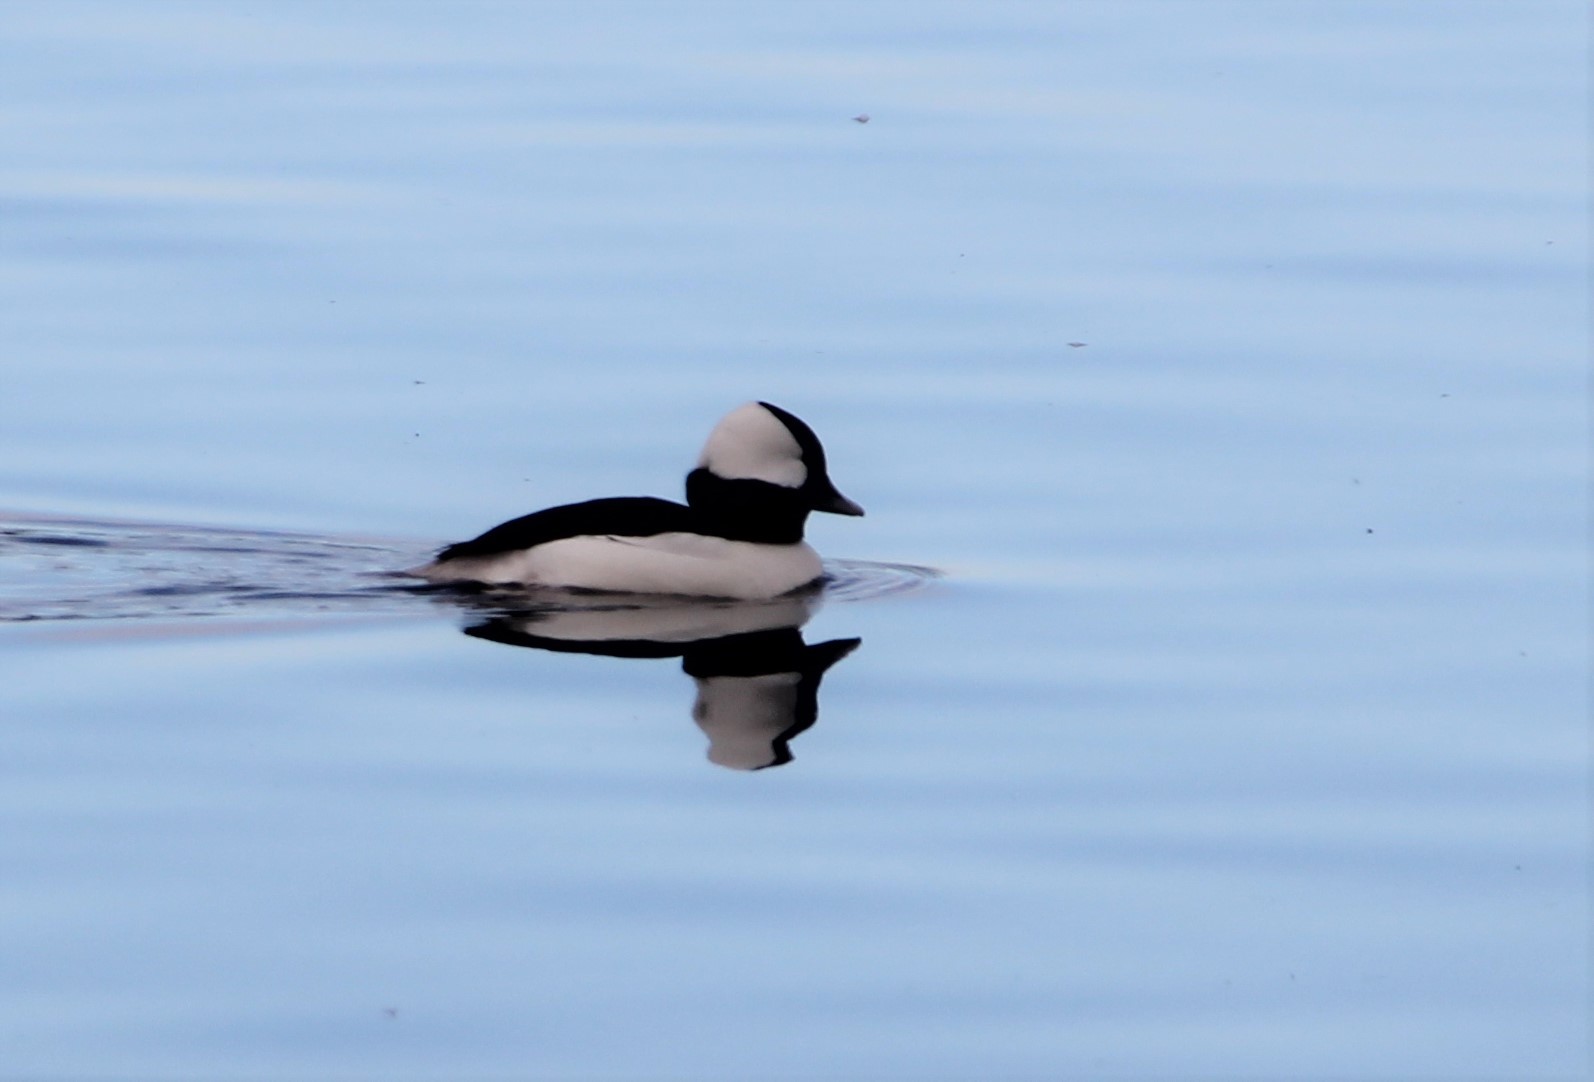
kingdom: Animalia
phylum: Chordata
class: Aves
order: Anseriformes
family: Anatidae
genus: Bucephala
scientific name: Bucephala albeola
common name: Bufflehead
